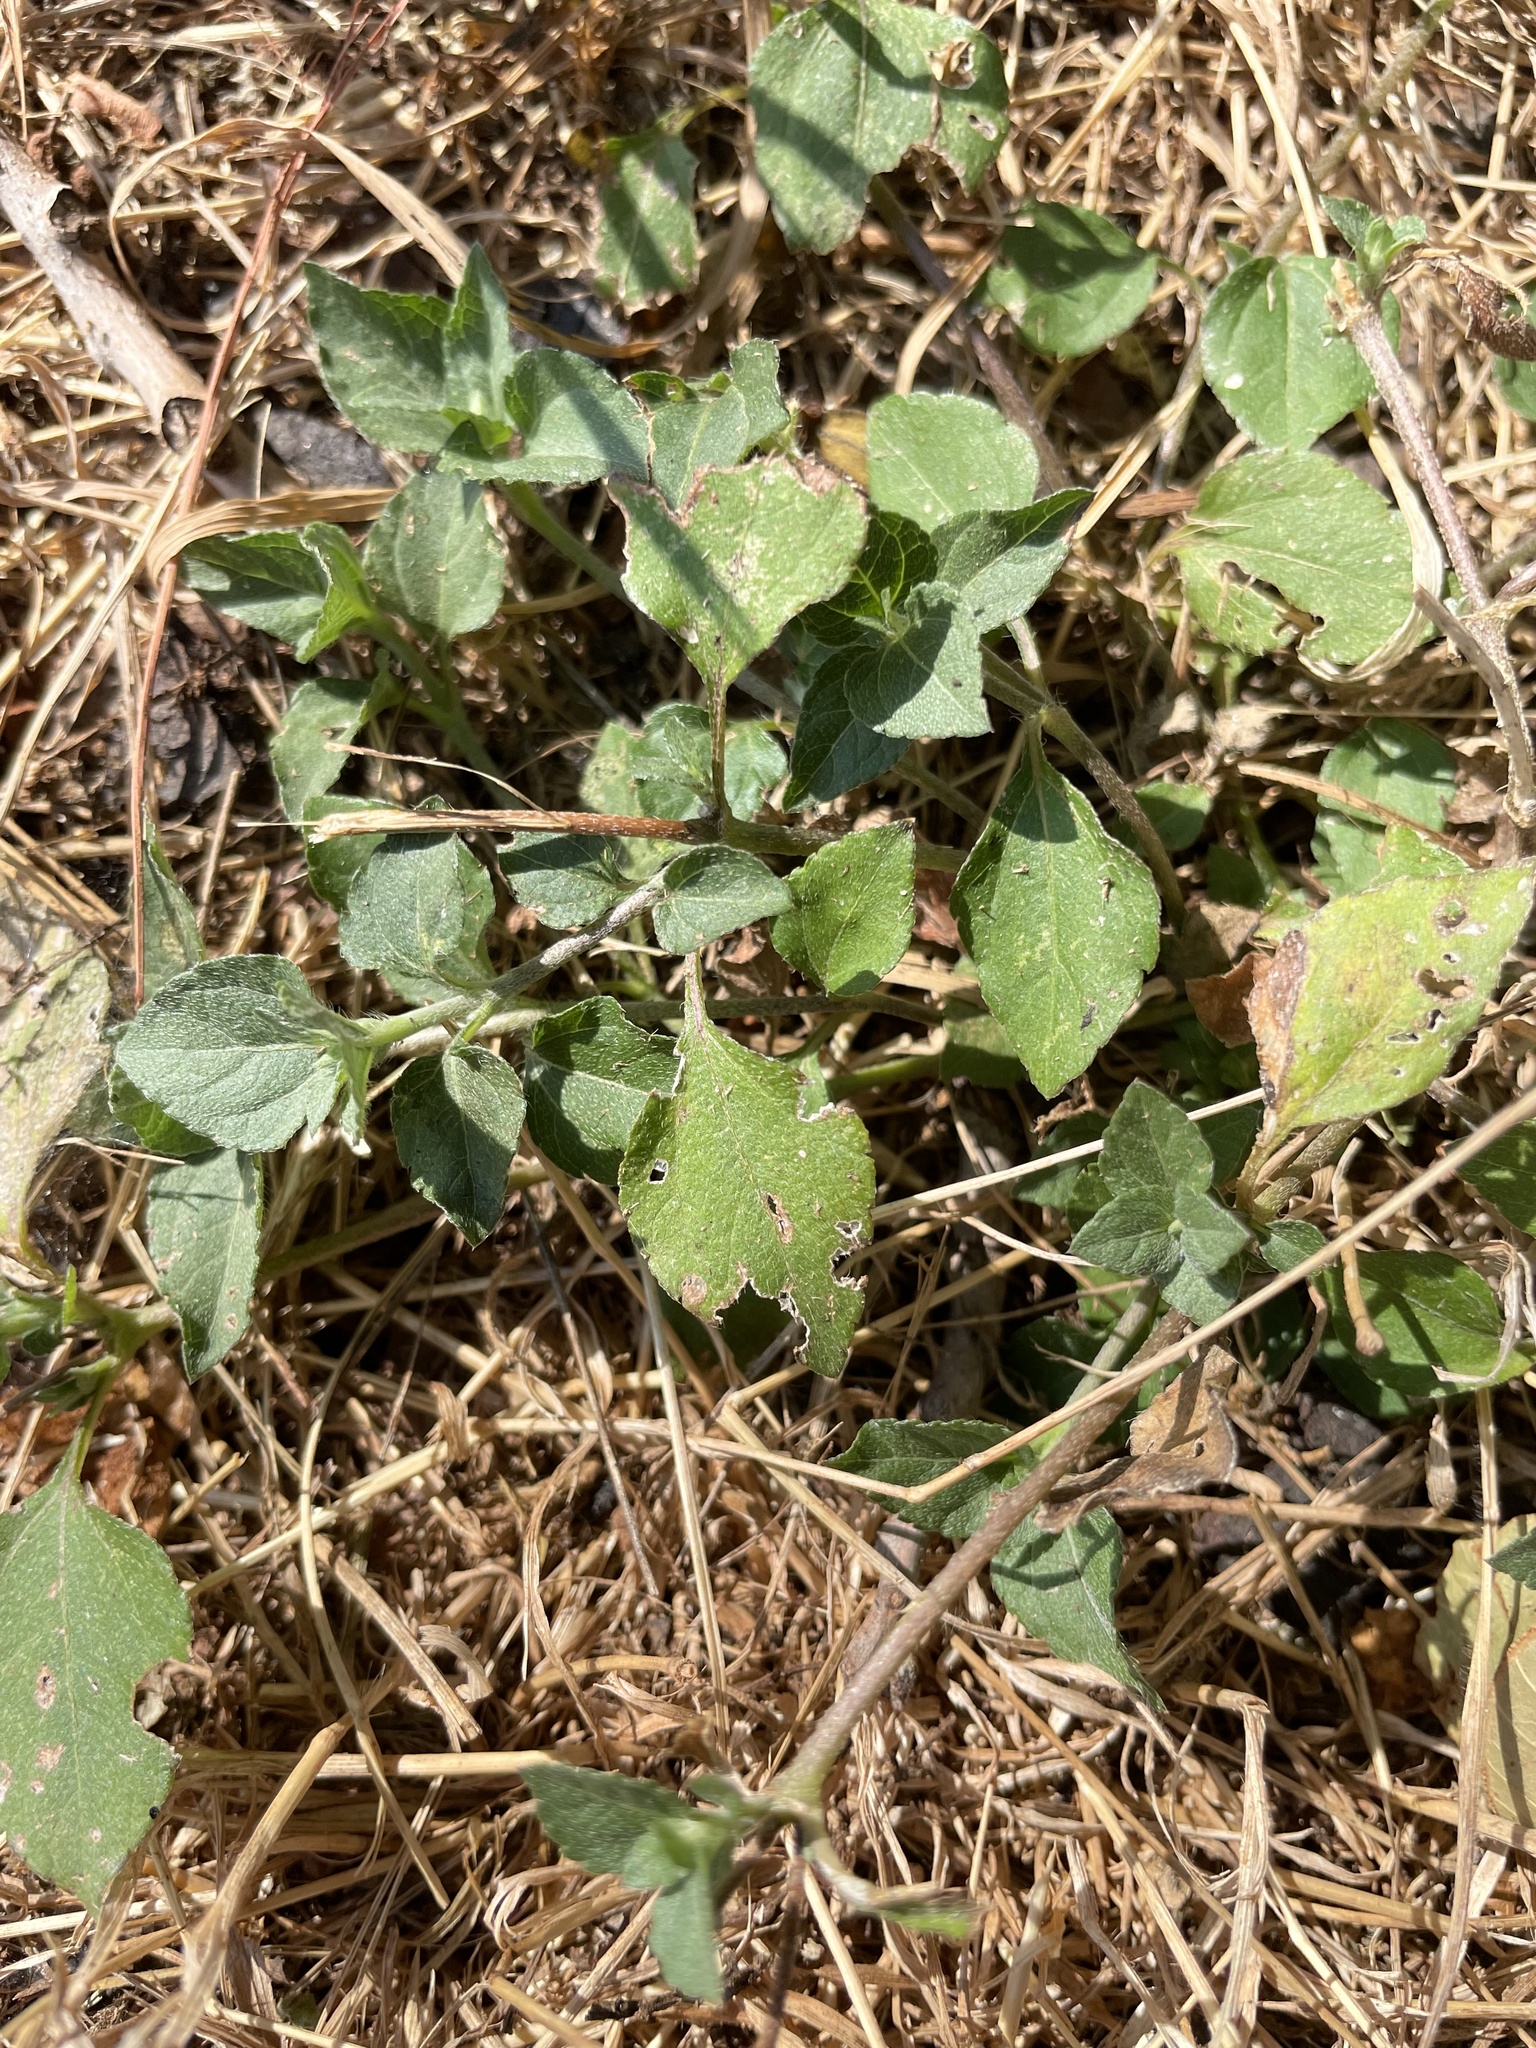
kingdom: Plantae
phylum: Tracheophyta
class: Magnoliopsida
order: Asterales
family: Asteraceae
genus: Calyptocarpus
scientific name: Calyptocarpus vialis
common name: Straggler daisy
